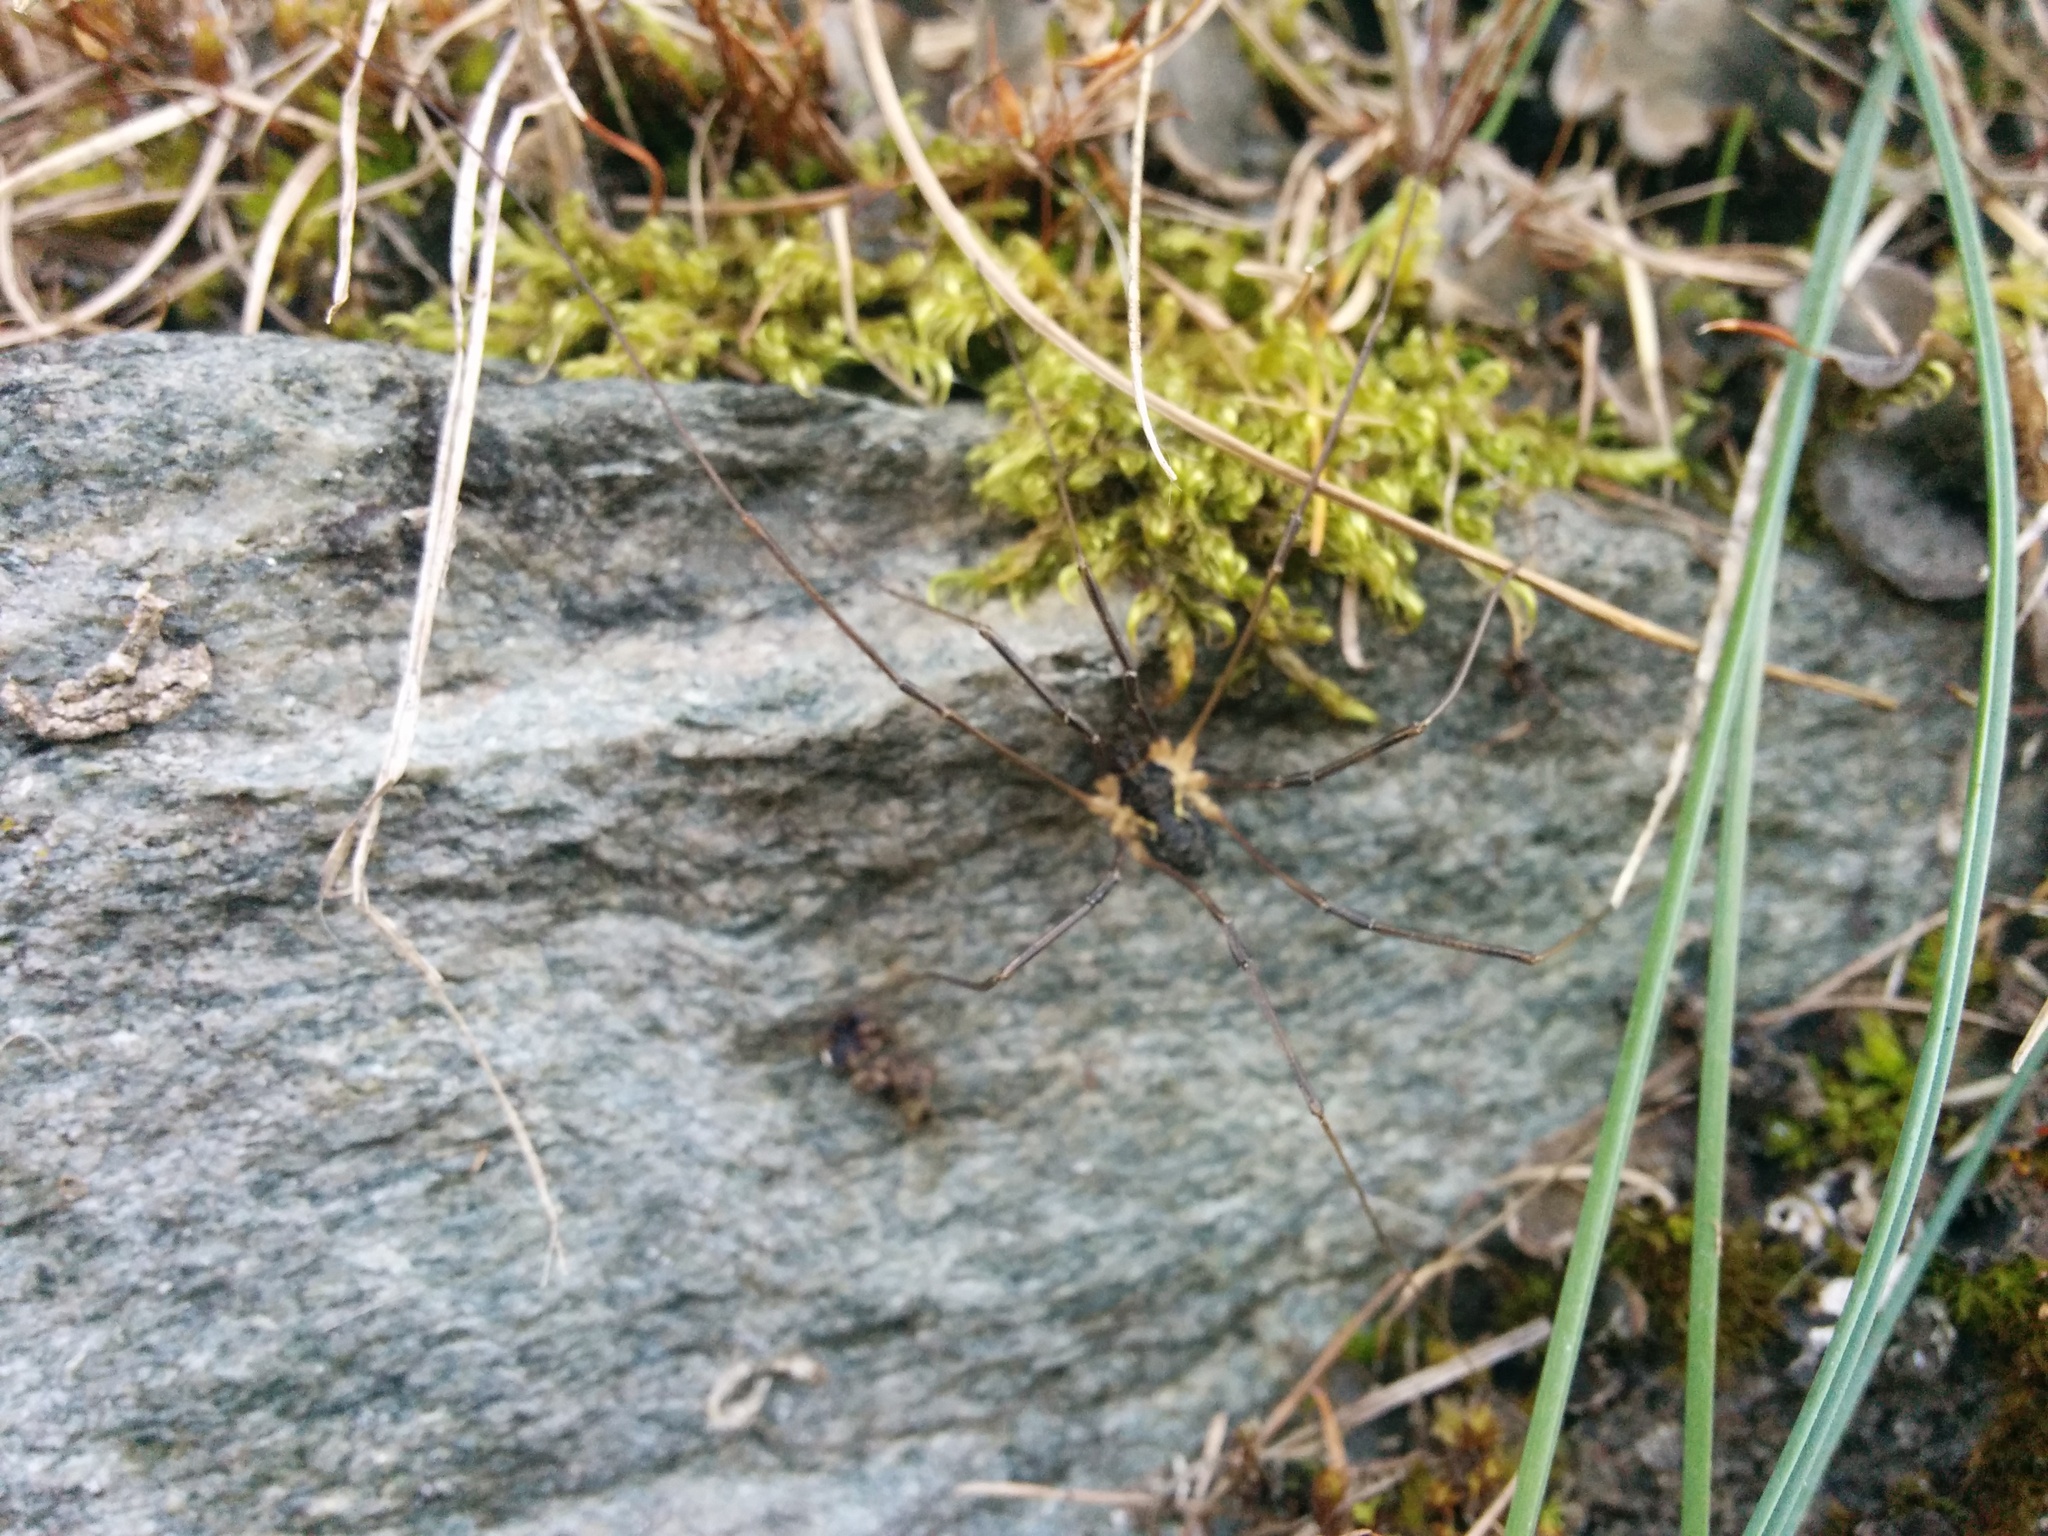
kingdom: Animalia
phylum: Arthropoda
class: Arachnida
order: Opiliones
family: Phalangiidae
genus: Mitopus
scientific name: Mitopus morio
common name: Saddleback harvestman
